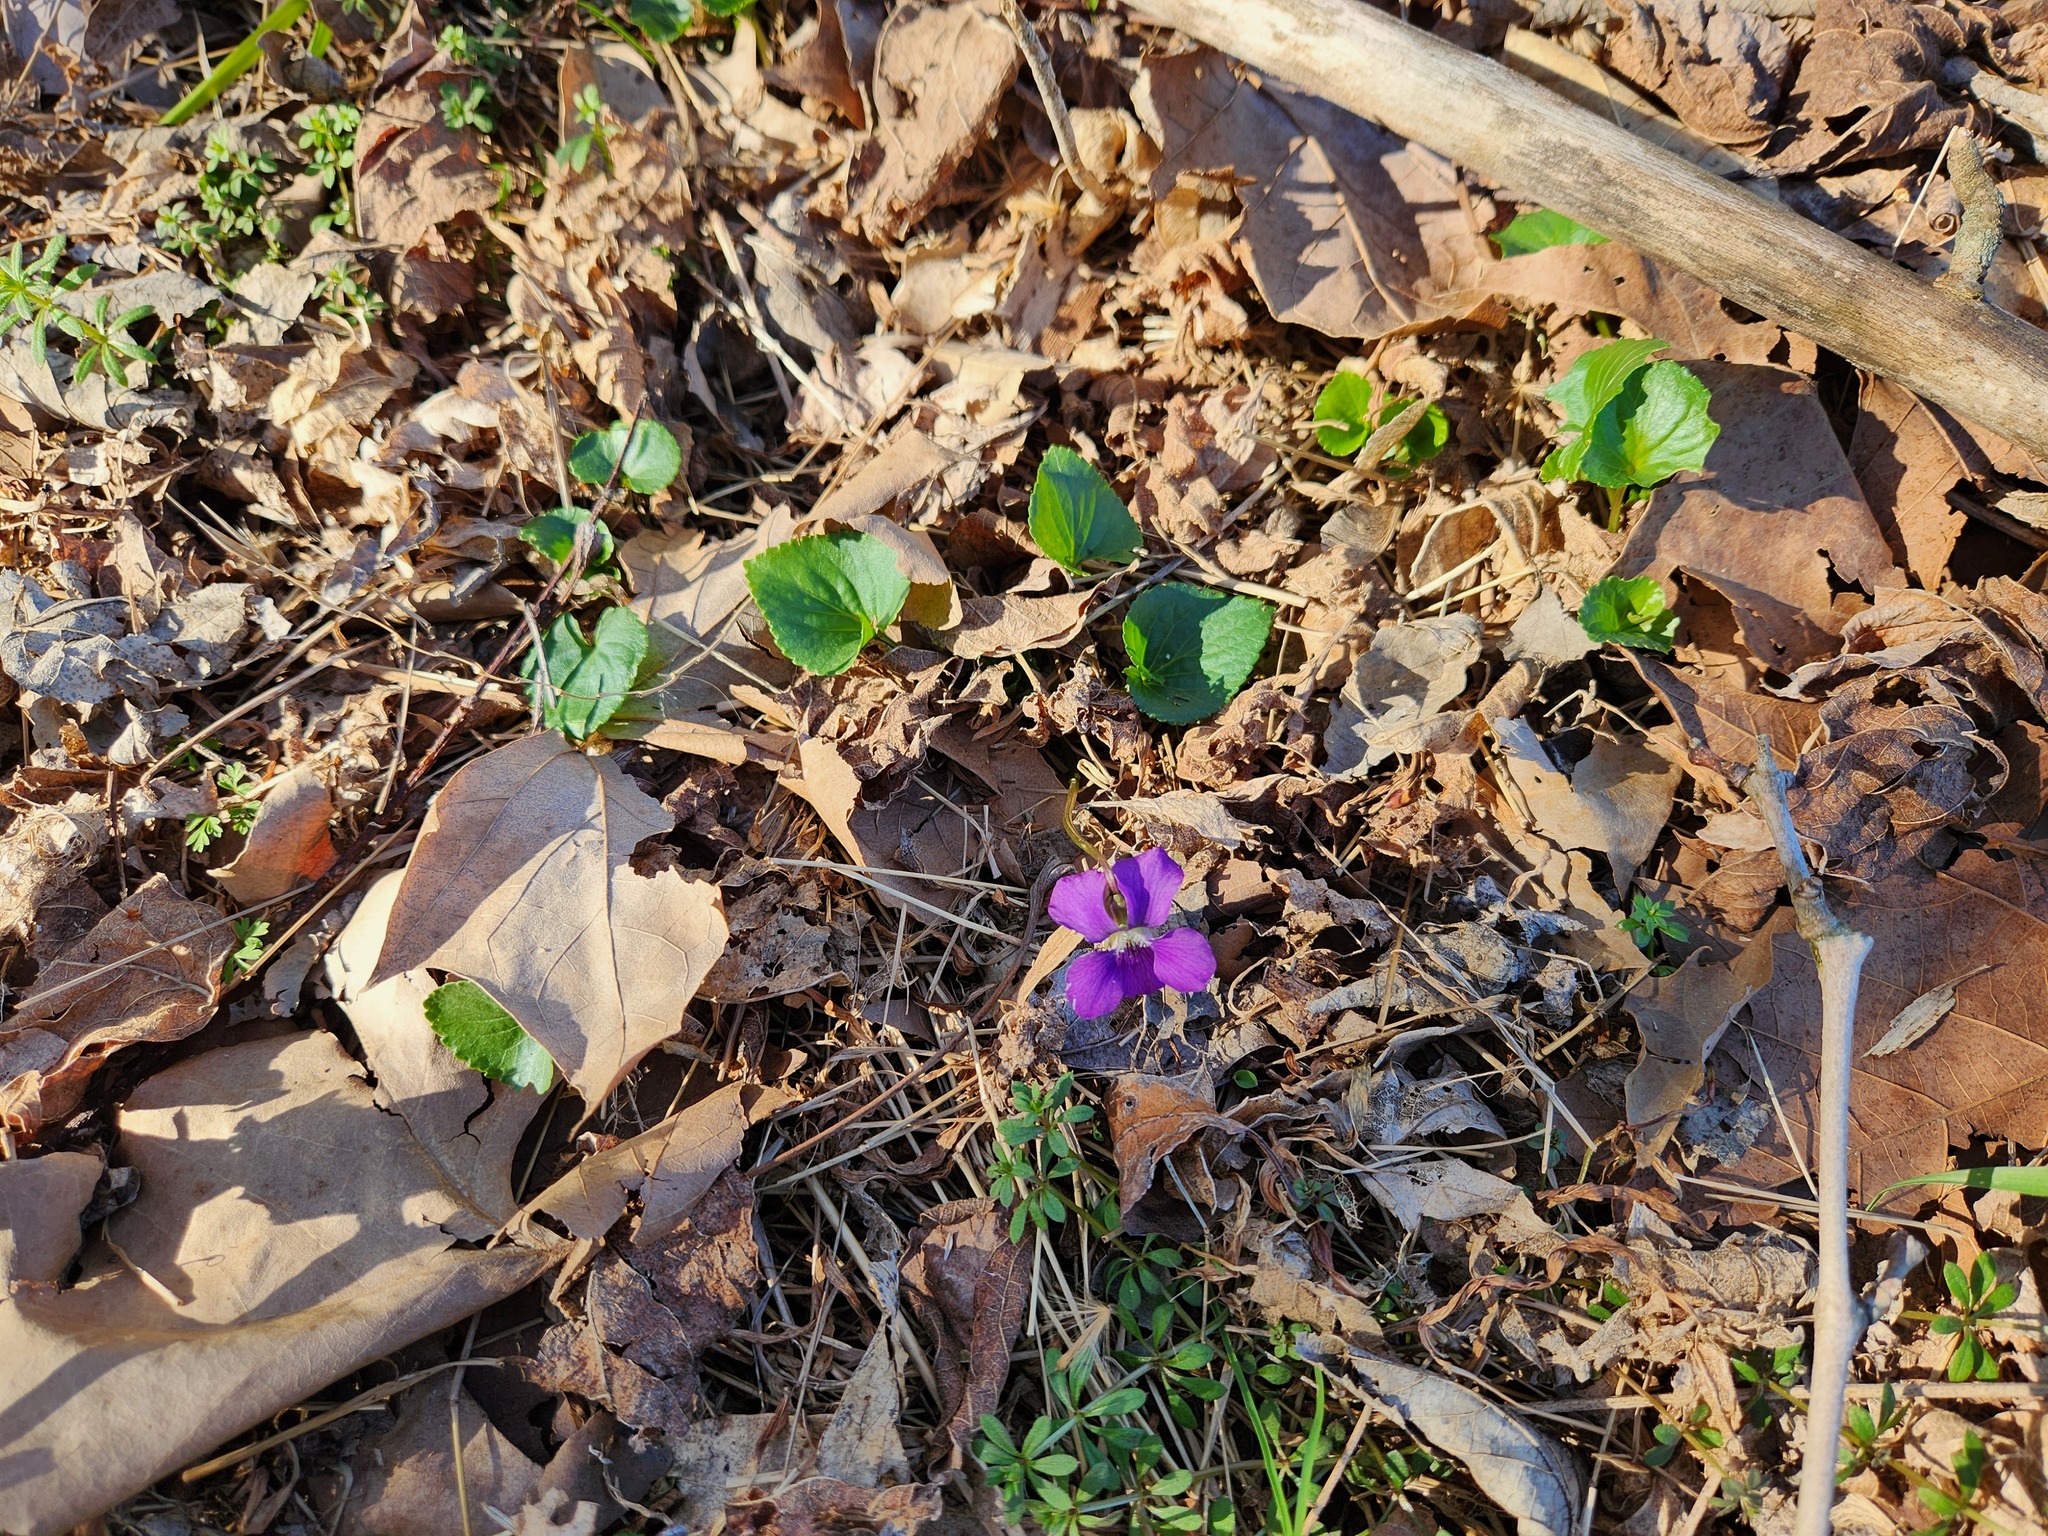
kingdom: Plantae
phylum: Tracheophyta
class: Magnoliopsida
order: Malpighiales
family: Violaceae
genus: Viola
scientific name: Viola sororia
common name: Dooryard violet
